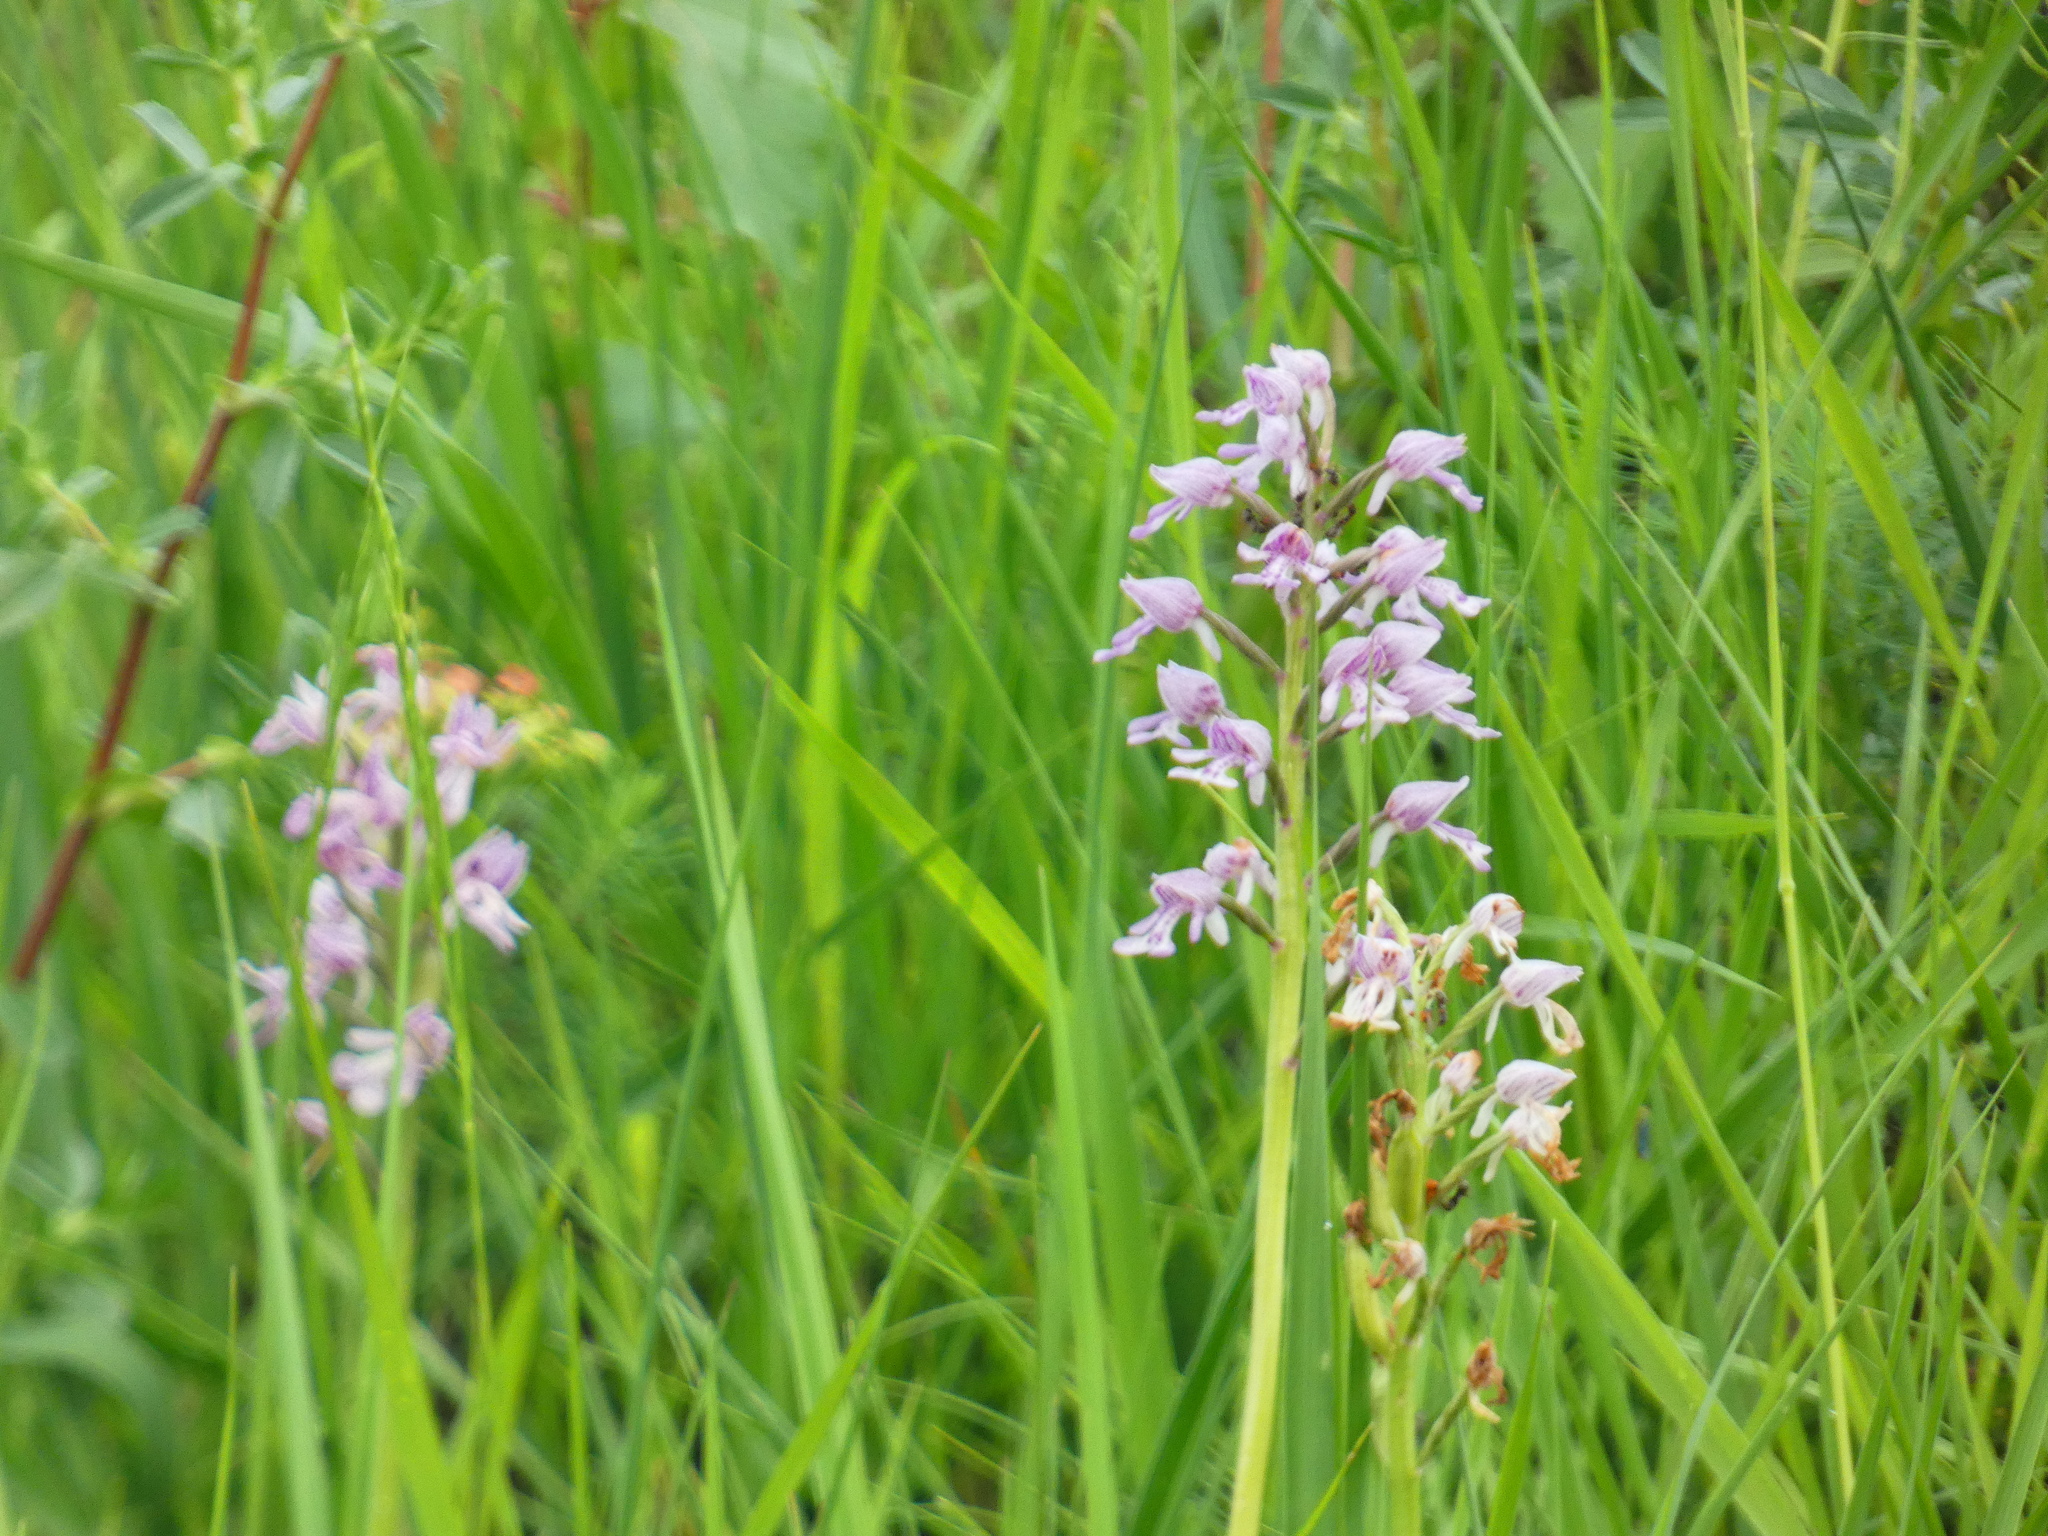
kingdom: Plantae
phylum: Tracheophyta
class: Liliopsida
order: Asparagales
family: Orchidaceae
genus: Orchis
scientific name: Orchis militaris
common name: Military orchid
